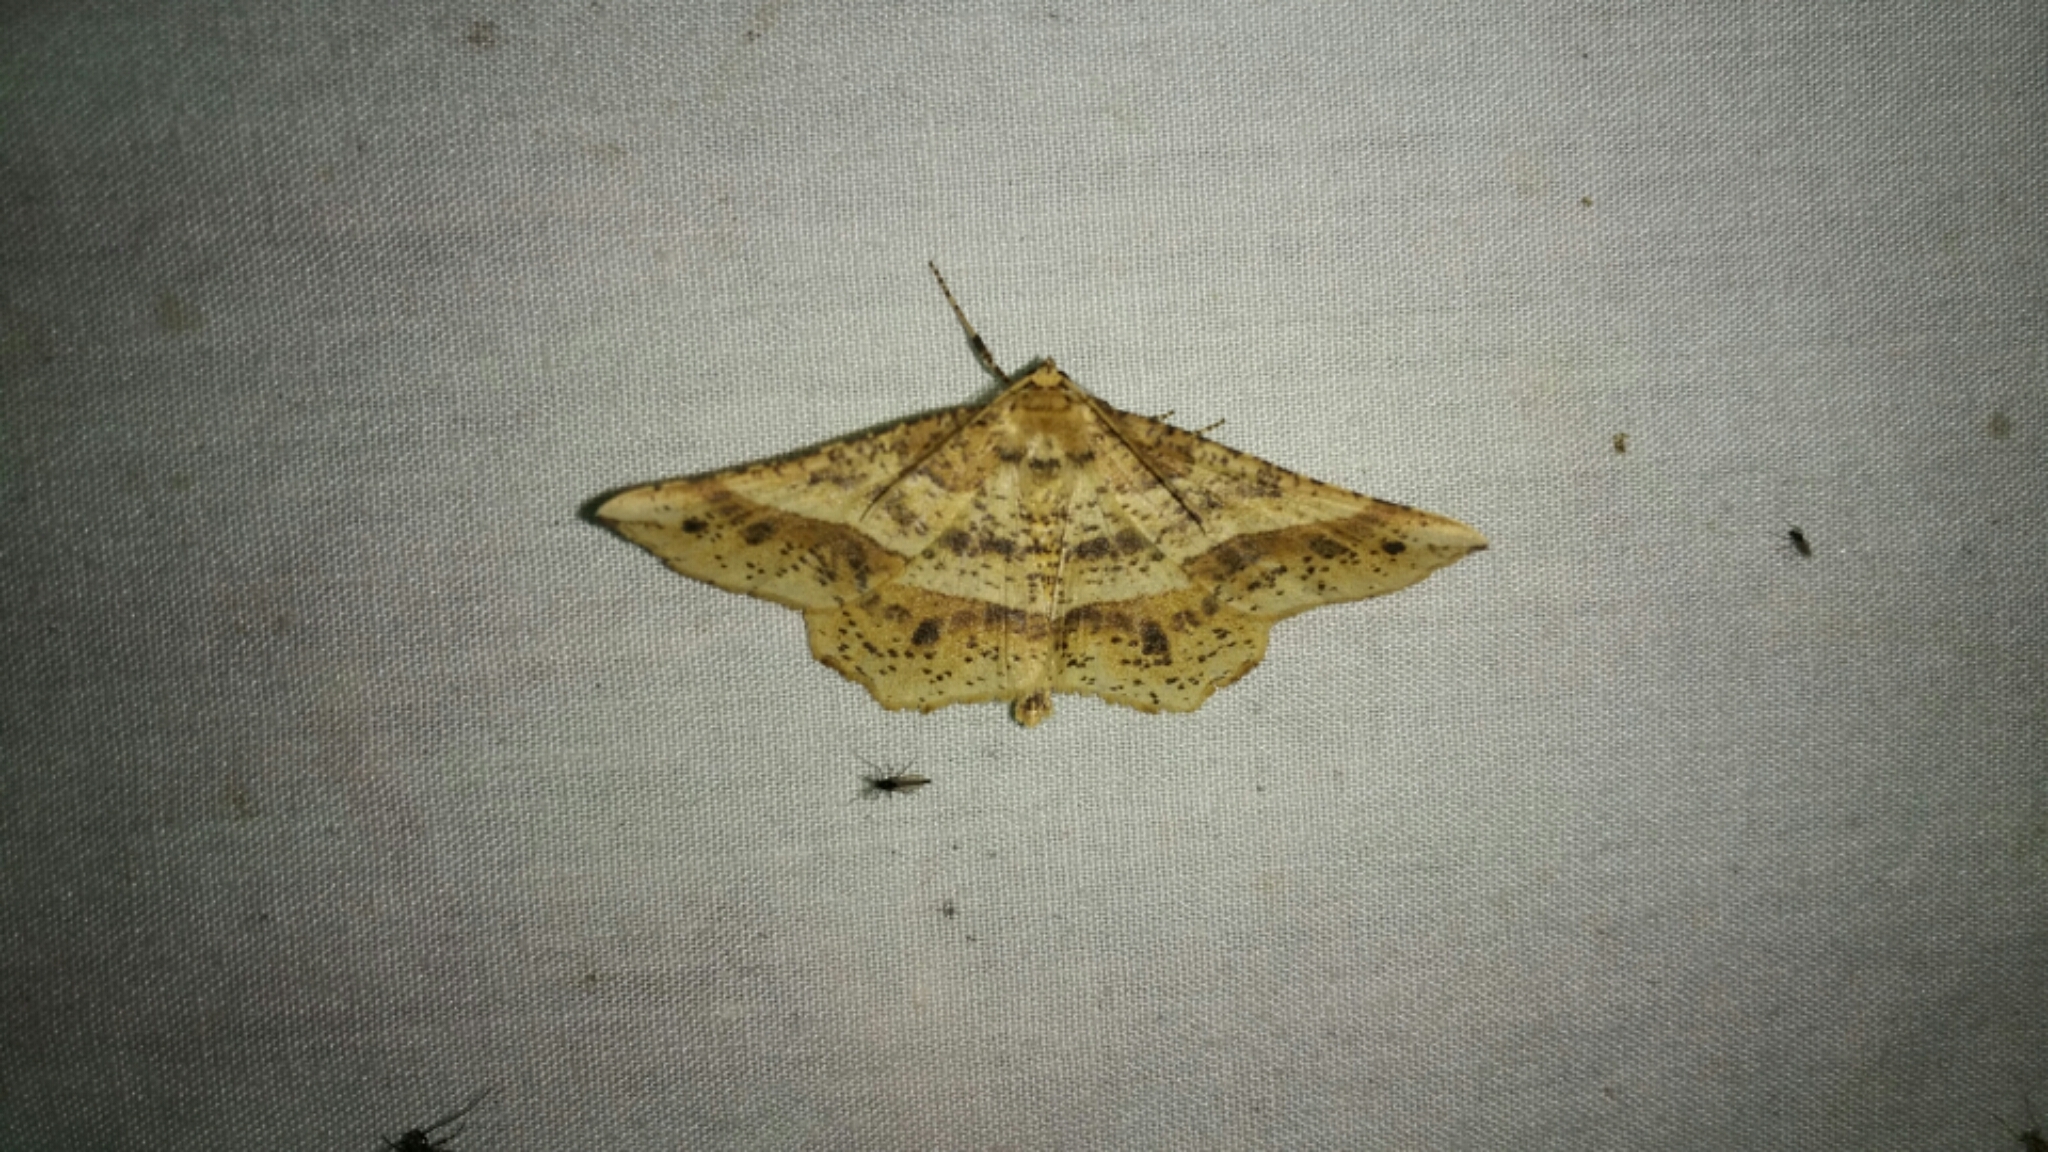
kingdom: Animalia
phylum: Arthropoda
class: Insecta
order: Lepidoptera
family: Geometridae
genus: Euchlaena
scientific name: Euchlaena tigrinaria
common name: Mottled euchlaena moth
